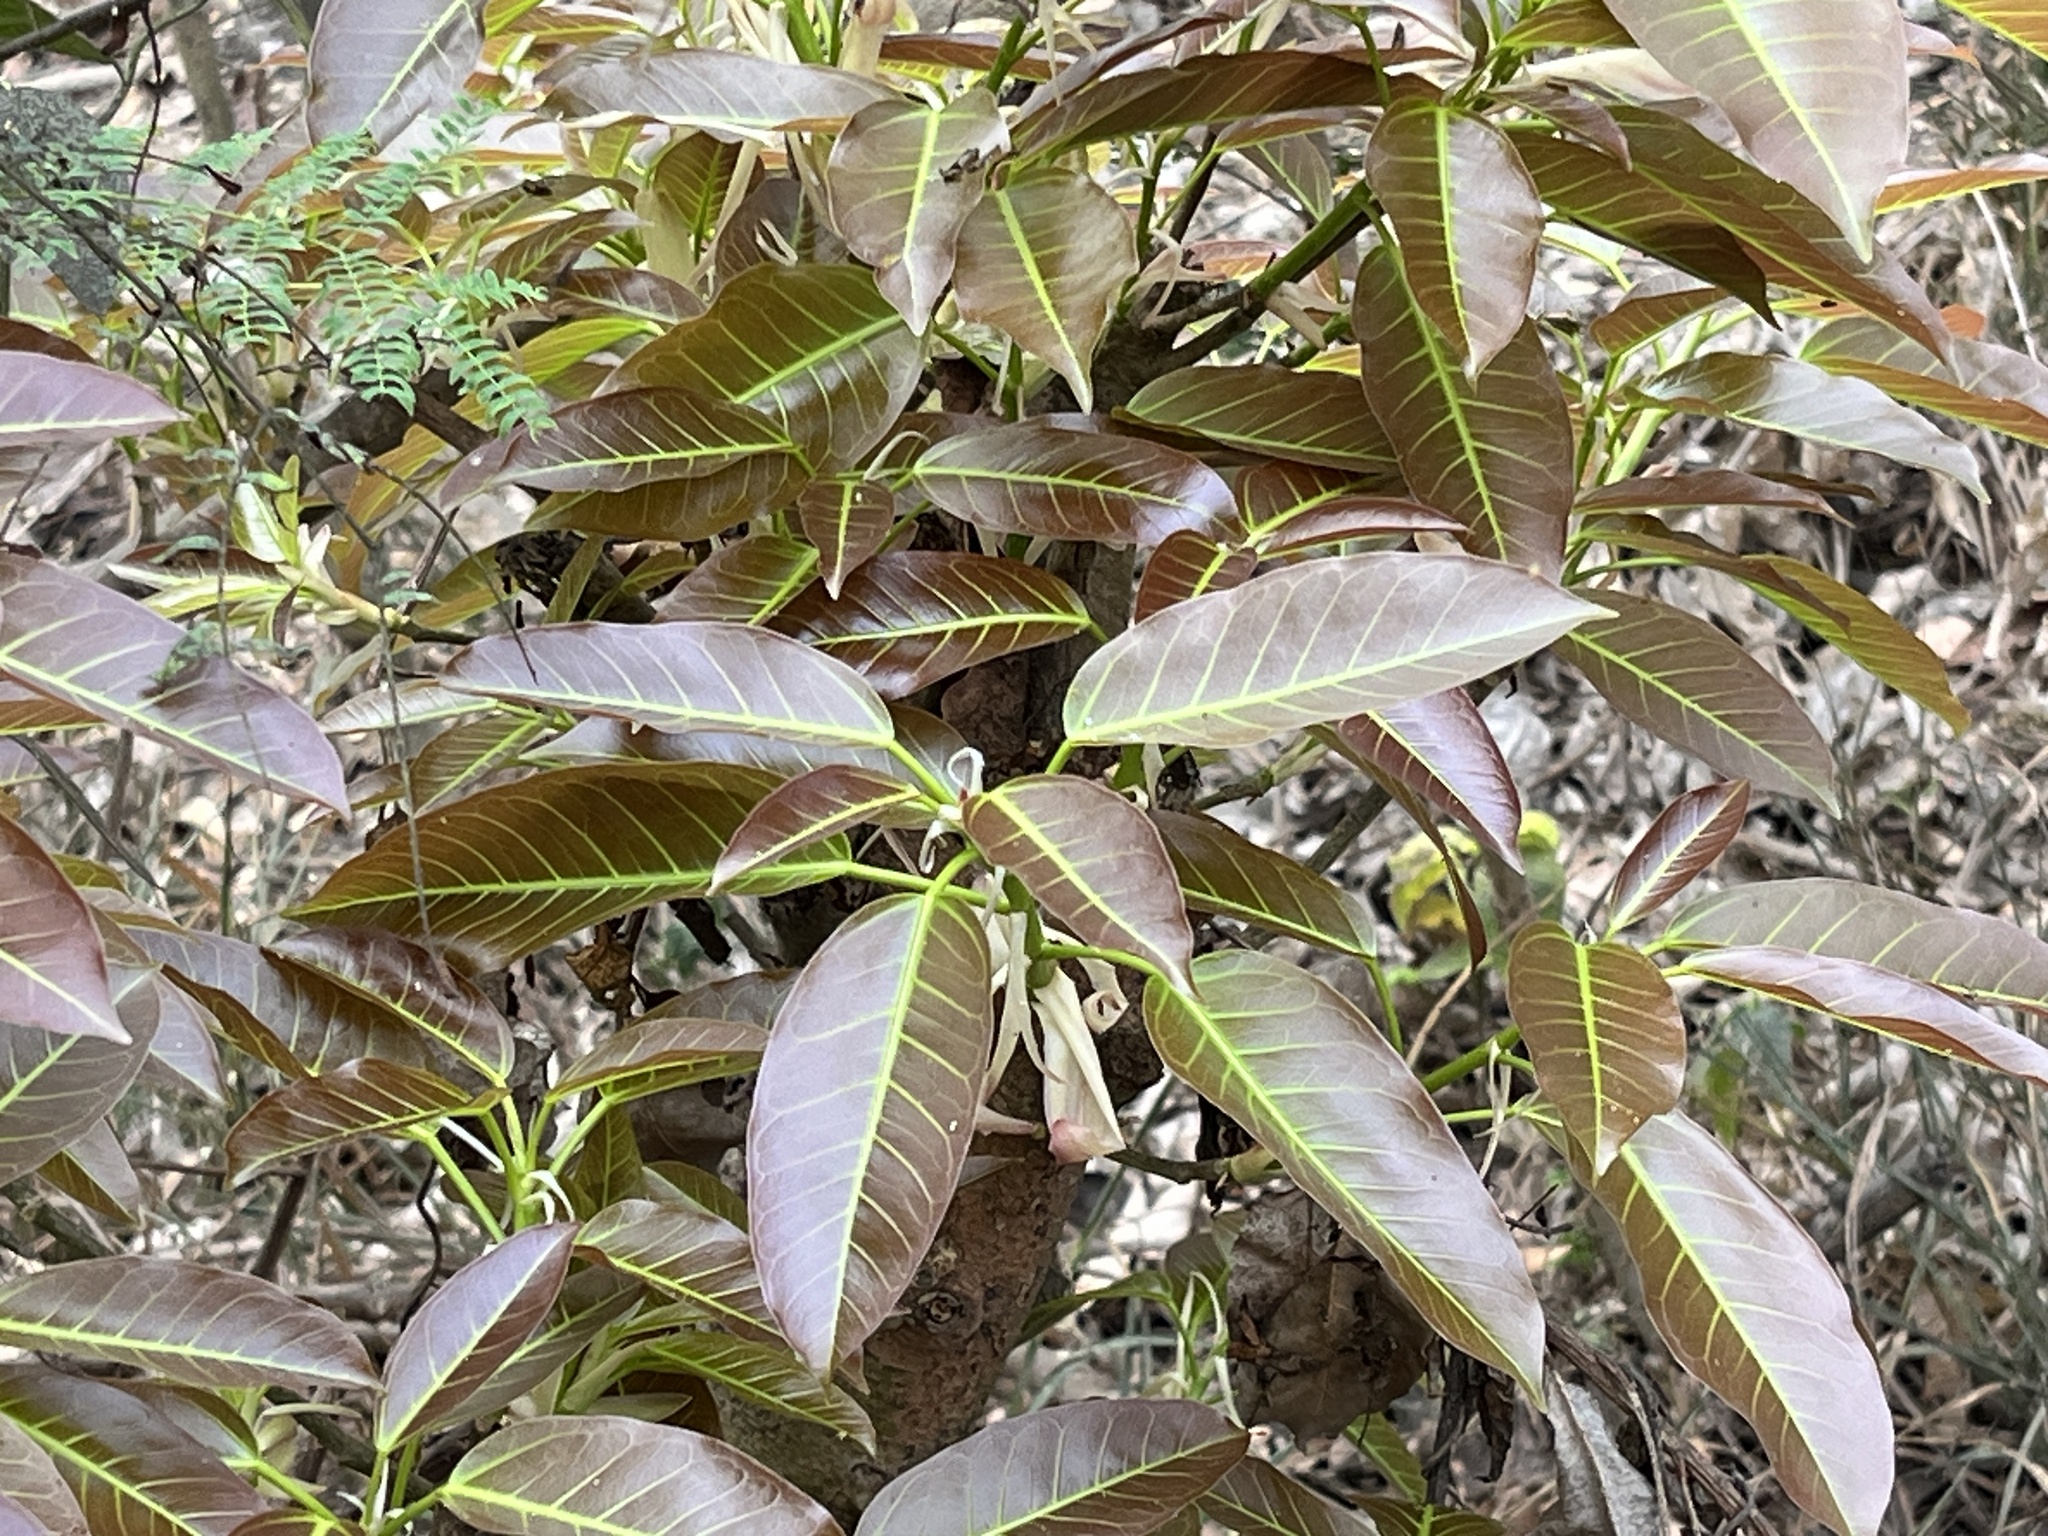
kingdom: Plantae
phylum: Tracheophyta
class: Magnoliopsida
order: Rosales
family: Moraceae
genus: Ficus
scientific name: Ficus subpisocarpa
